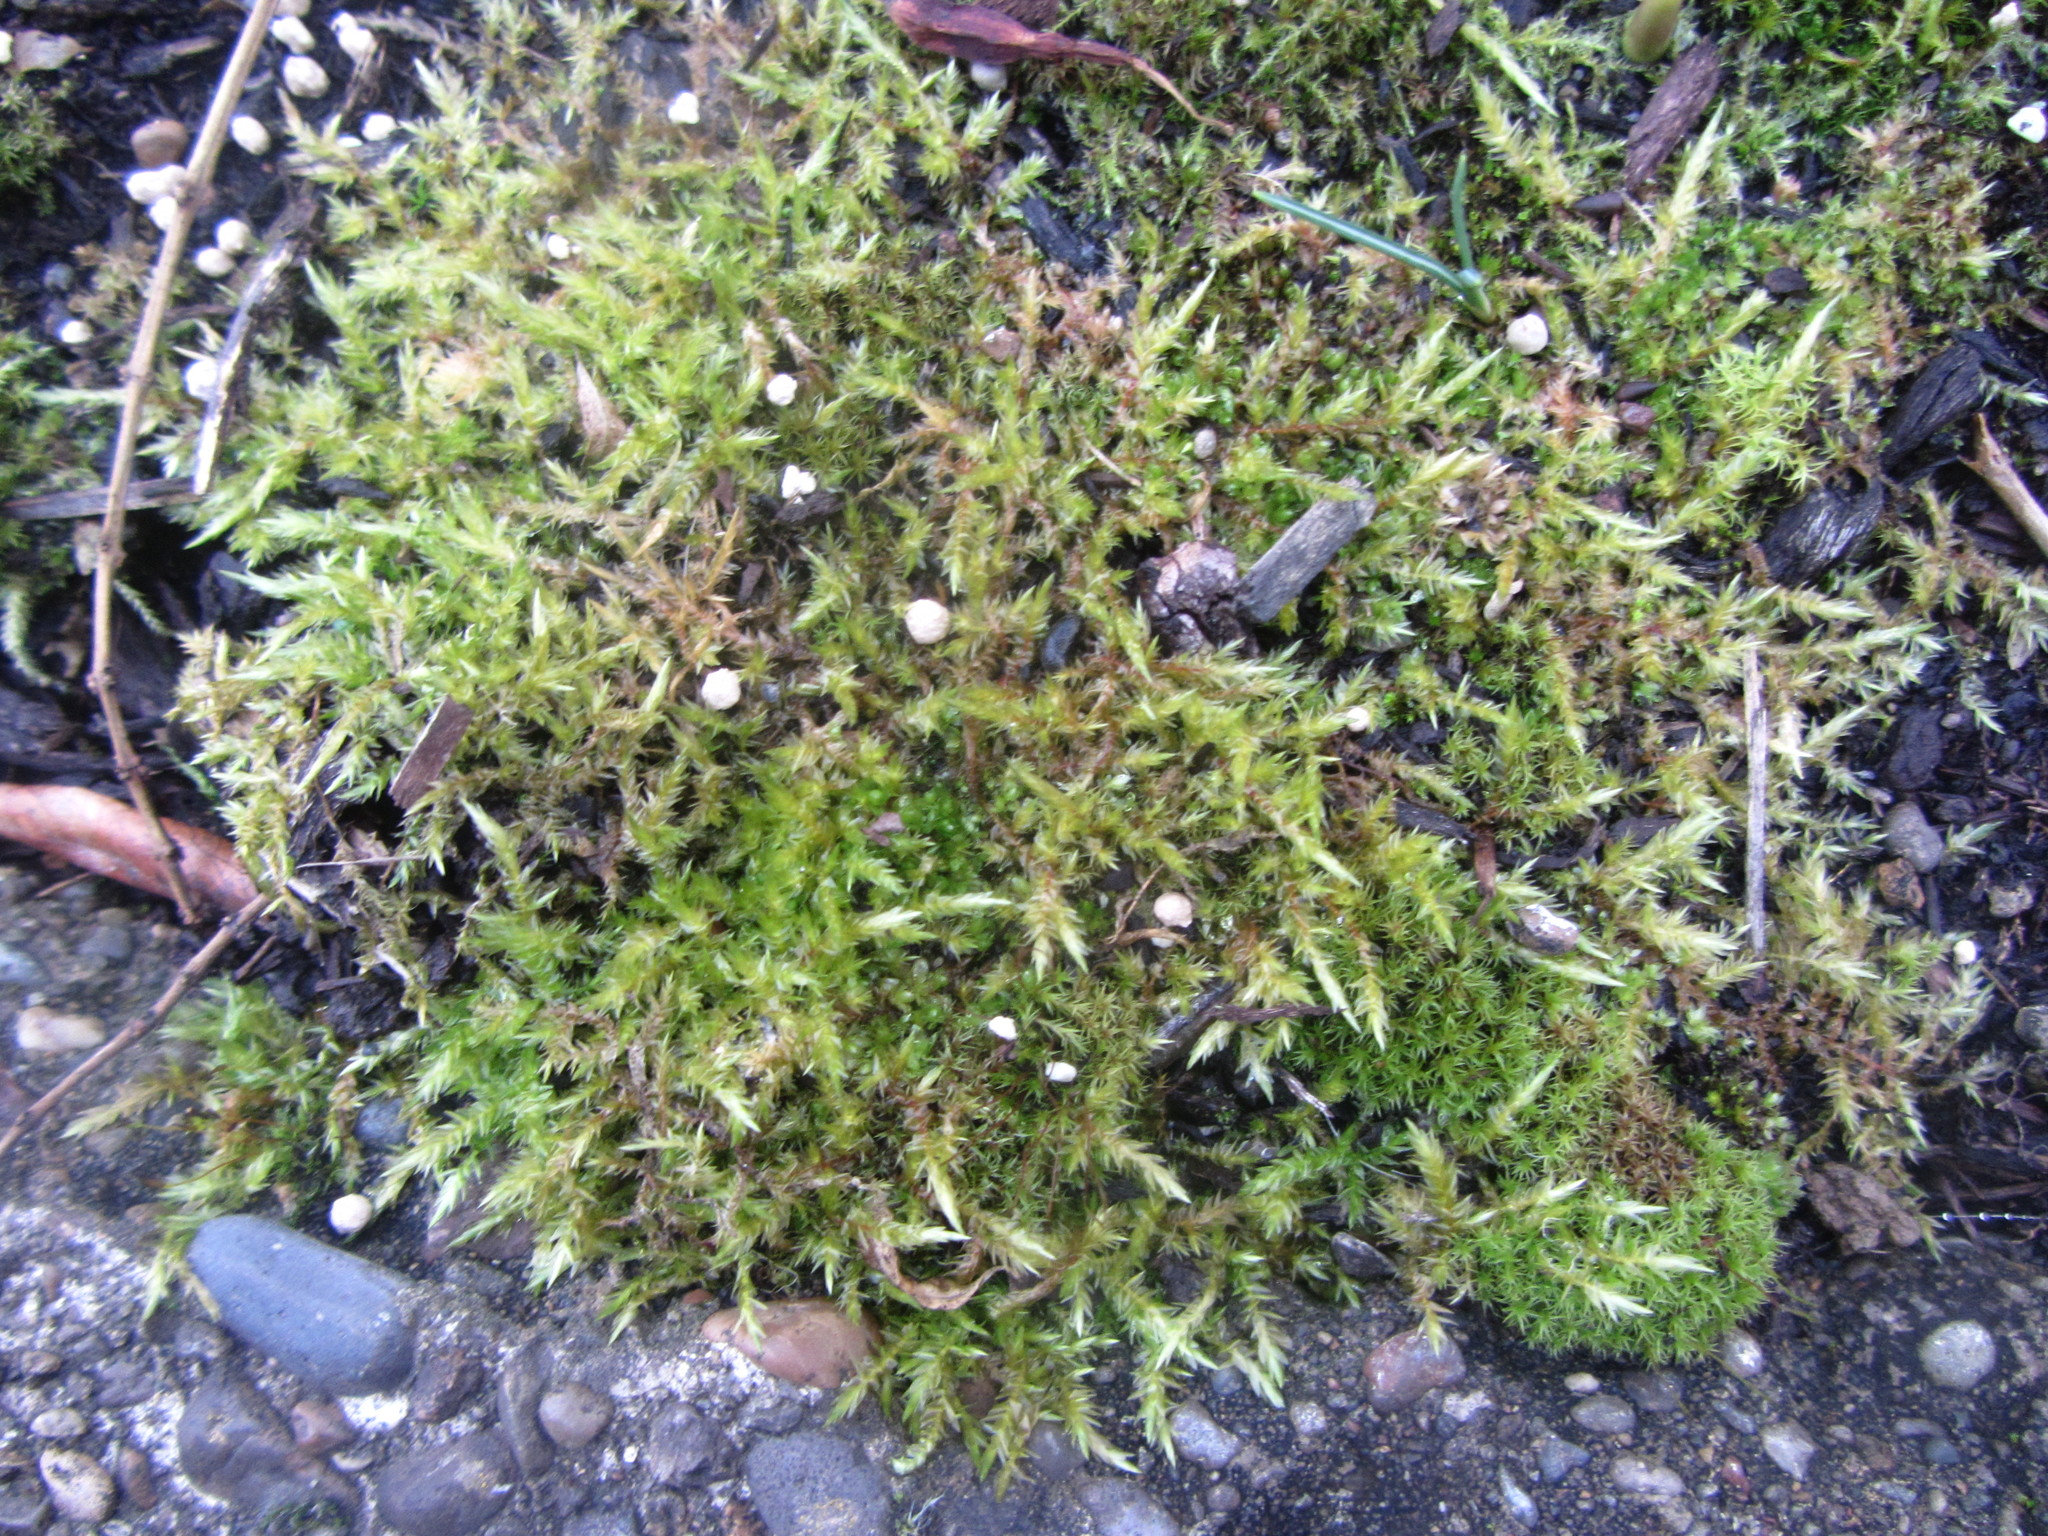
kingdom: Plantae
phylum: Bryophyta
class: Bryopsida
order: Hypnales
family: Pylaisiaceae
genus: Calliergonella
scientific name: Calliergonella cuspidata
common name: Common large wetland moss
